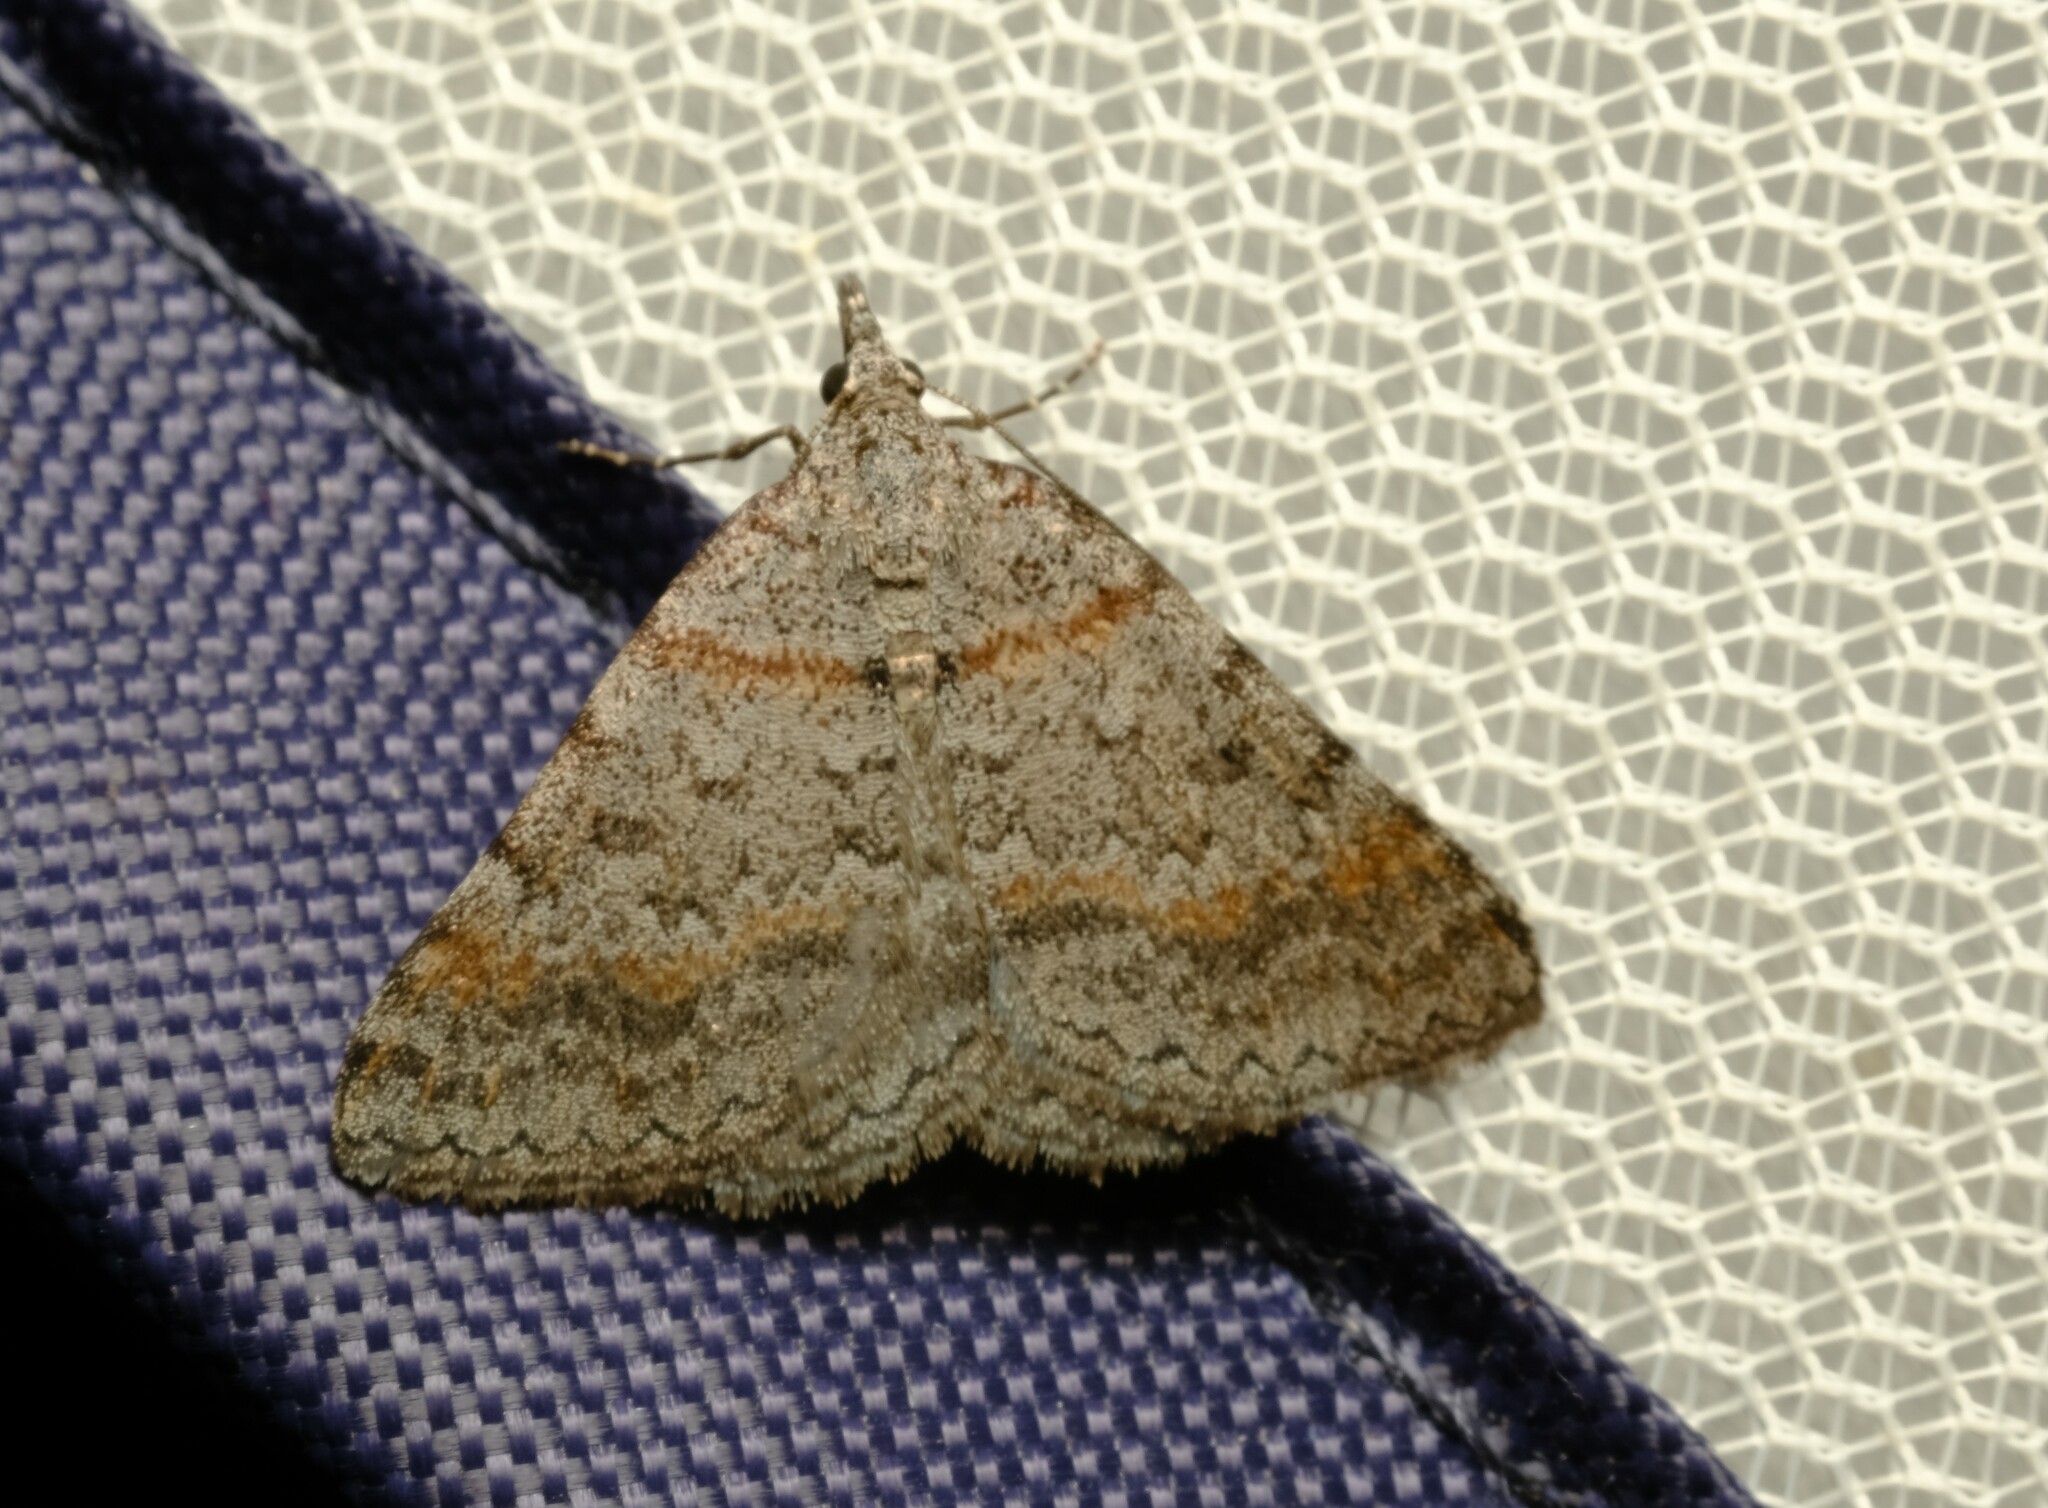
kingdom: Animalia
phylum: Arthropoda
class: Insecta
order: Lepidoptera
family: Geometridae
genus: Dichromodes
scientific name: Dichromodes obtusata
